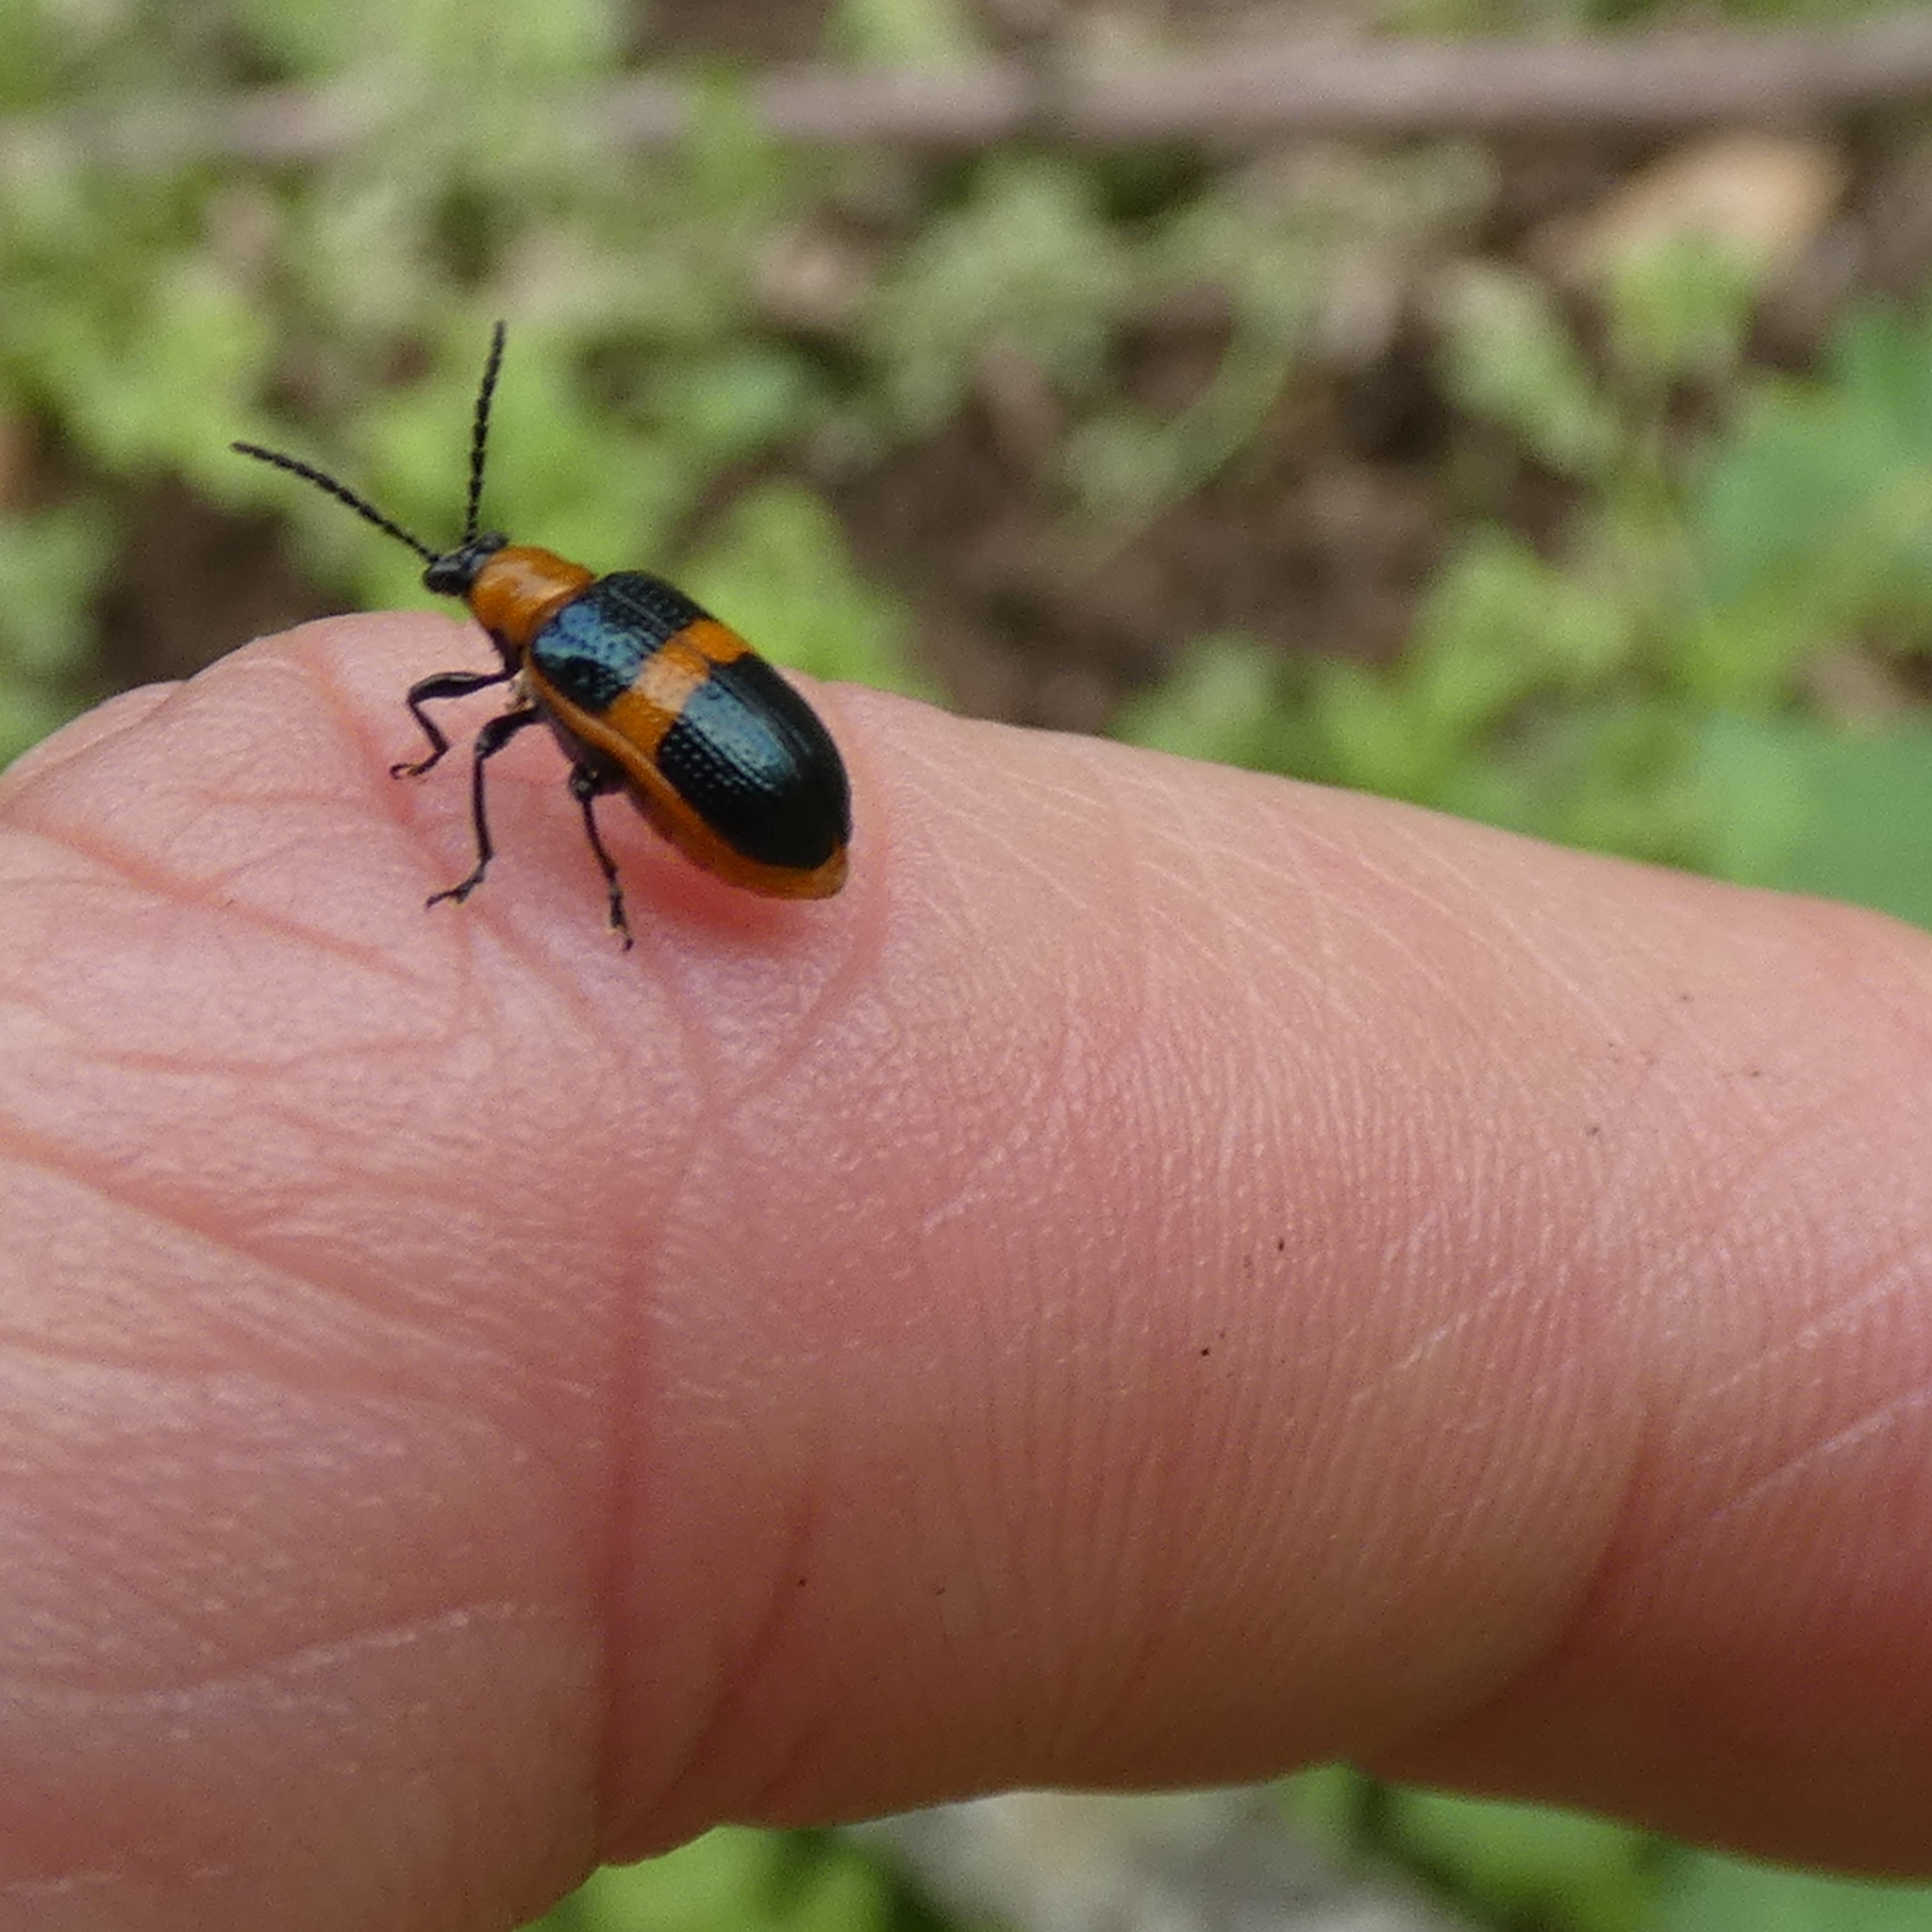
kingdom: Animalia
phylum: Arthropoda
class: Insecta
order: Coleoptera
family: Chrysomelidae
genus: Lema
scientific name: Lema solani
